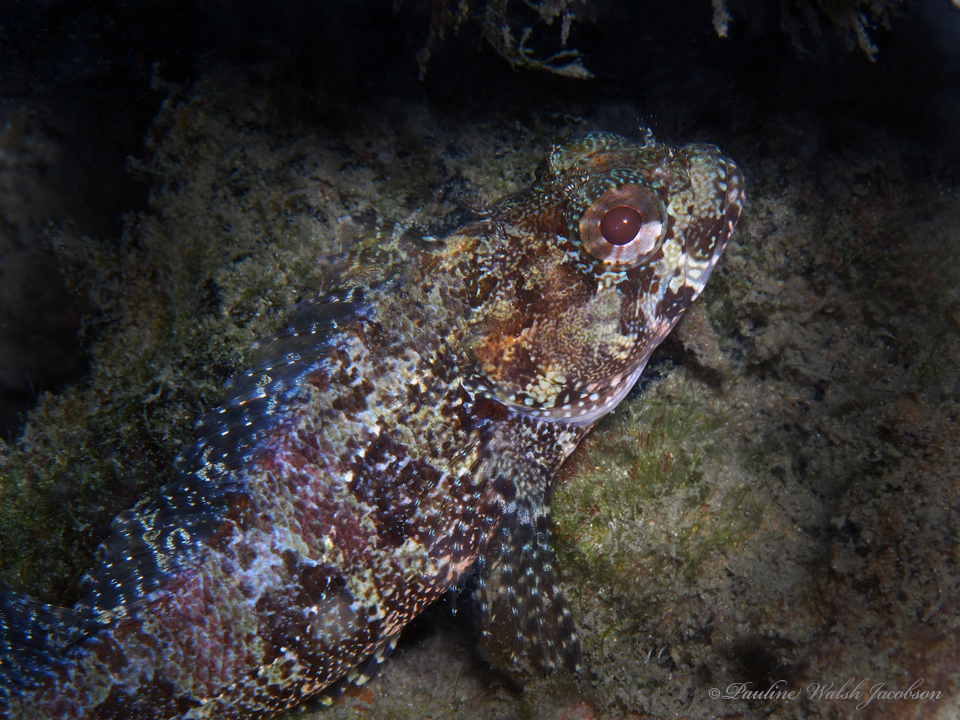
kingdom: Animalia
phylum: Chordata
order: Perciformes
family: Labrisomidae
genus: Gobioclinus
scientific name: Gobioclinus kalisherae
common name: Downy blenny
